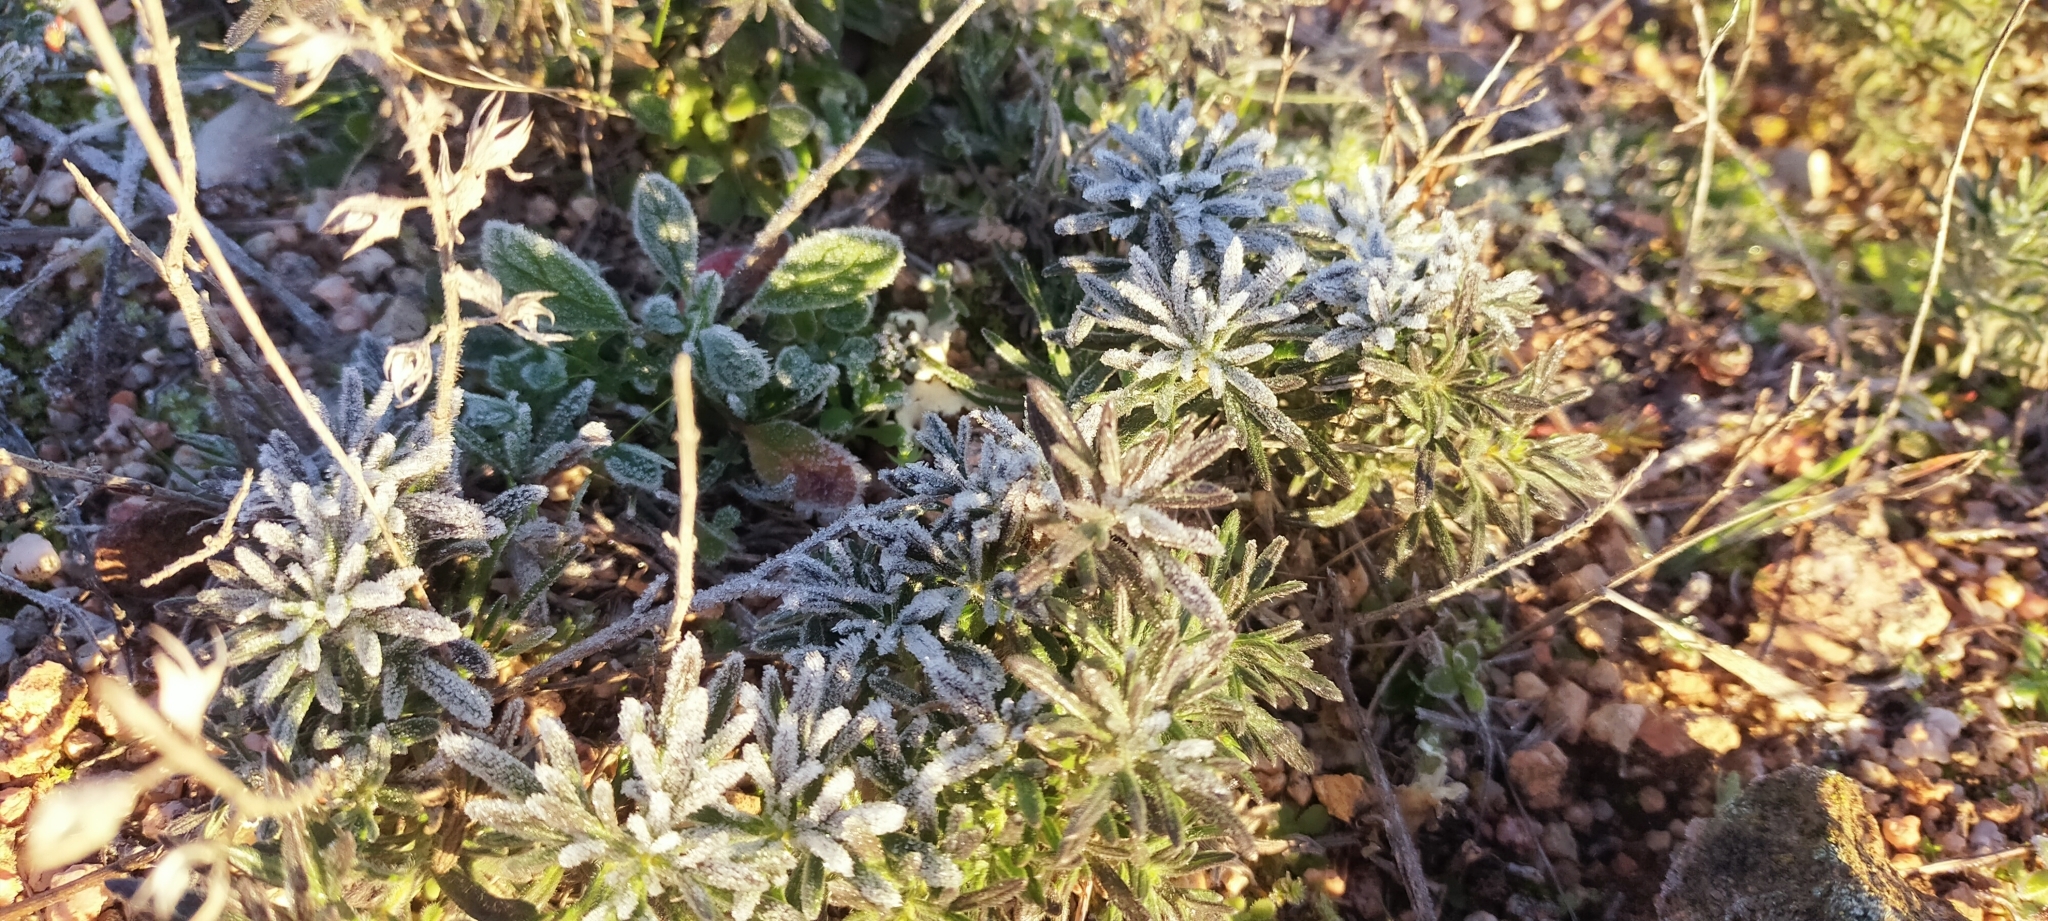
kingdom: Plantae
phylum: Tracheophyta
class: Magnoliopsida
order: Lamiales
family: Lamiaceae
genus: Teucrium
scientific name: Teucrium pseudochamaepitys
